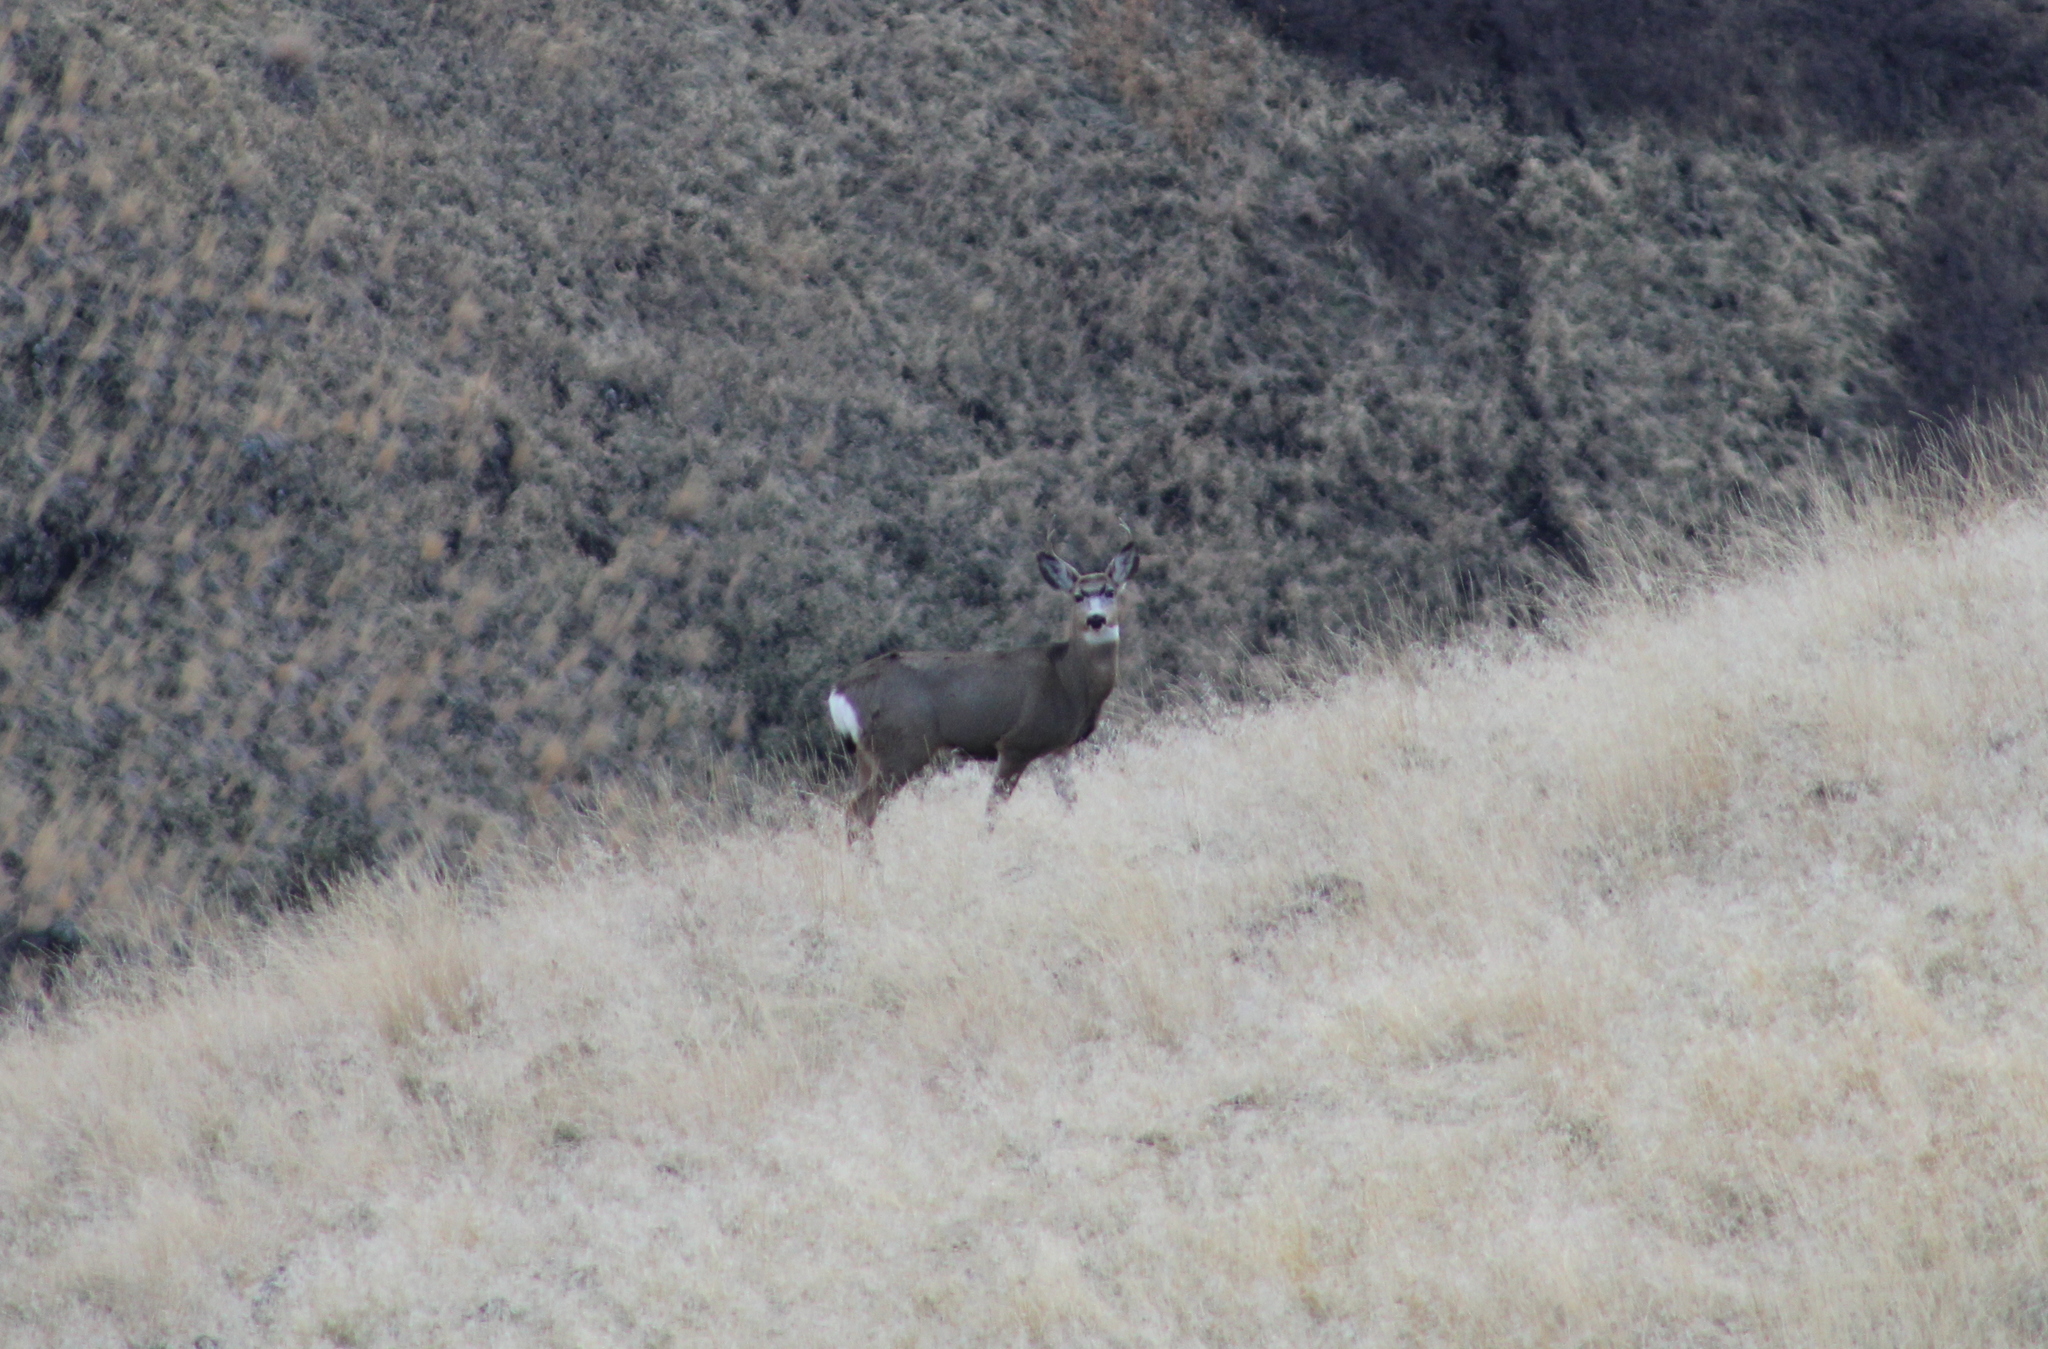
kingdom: Animalia
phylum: Chordata
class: Mammalia
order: Artiodactyla
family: Cervidae
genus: Odocoileus
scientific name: Odocoileus hemionus
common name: Mule deer
